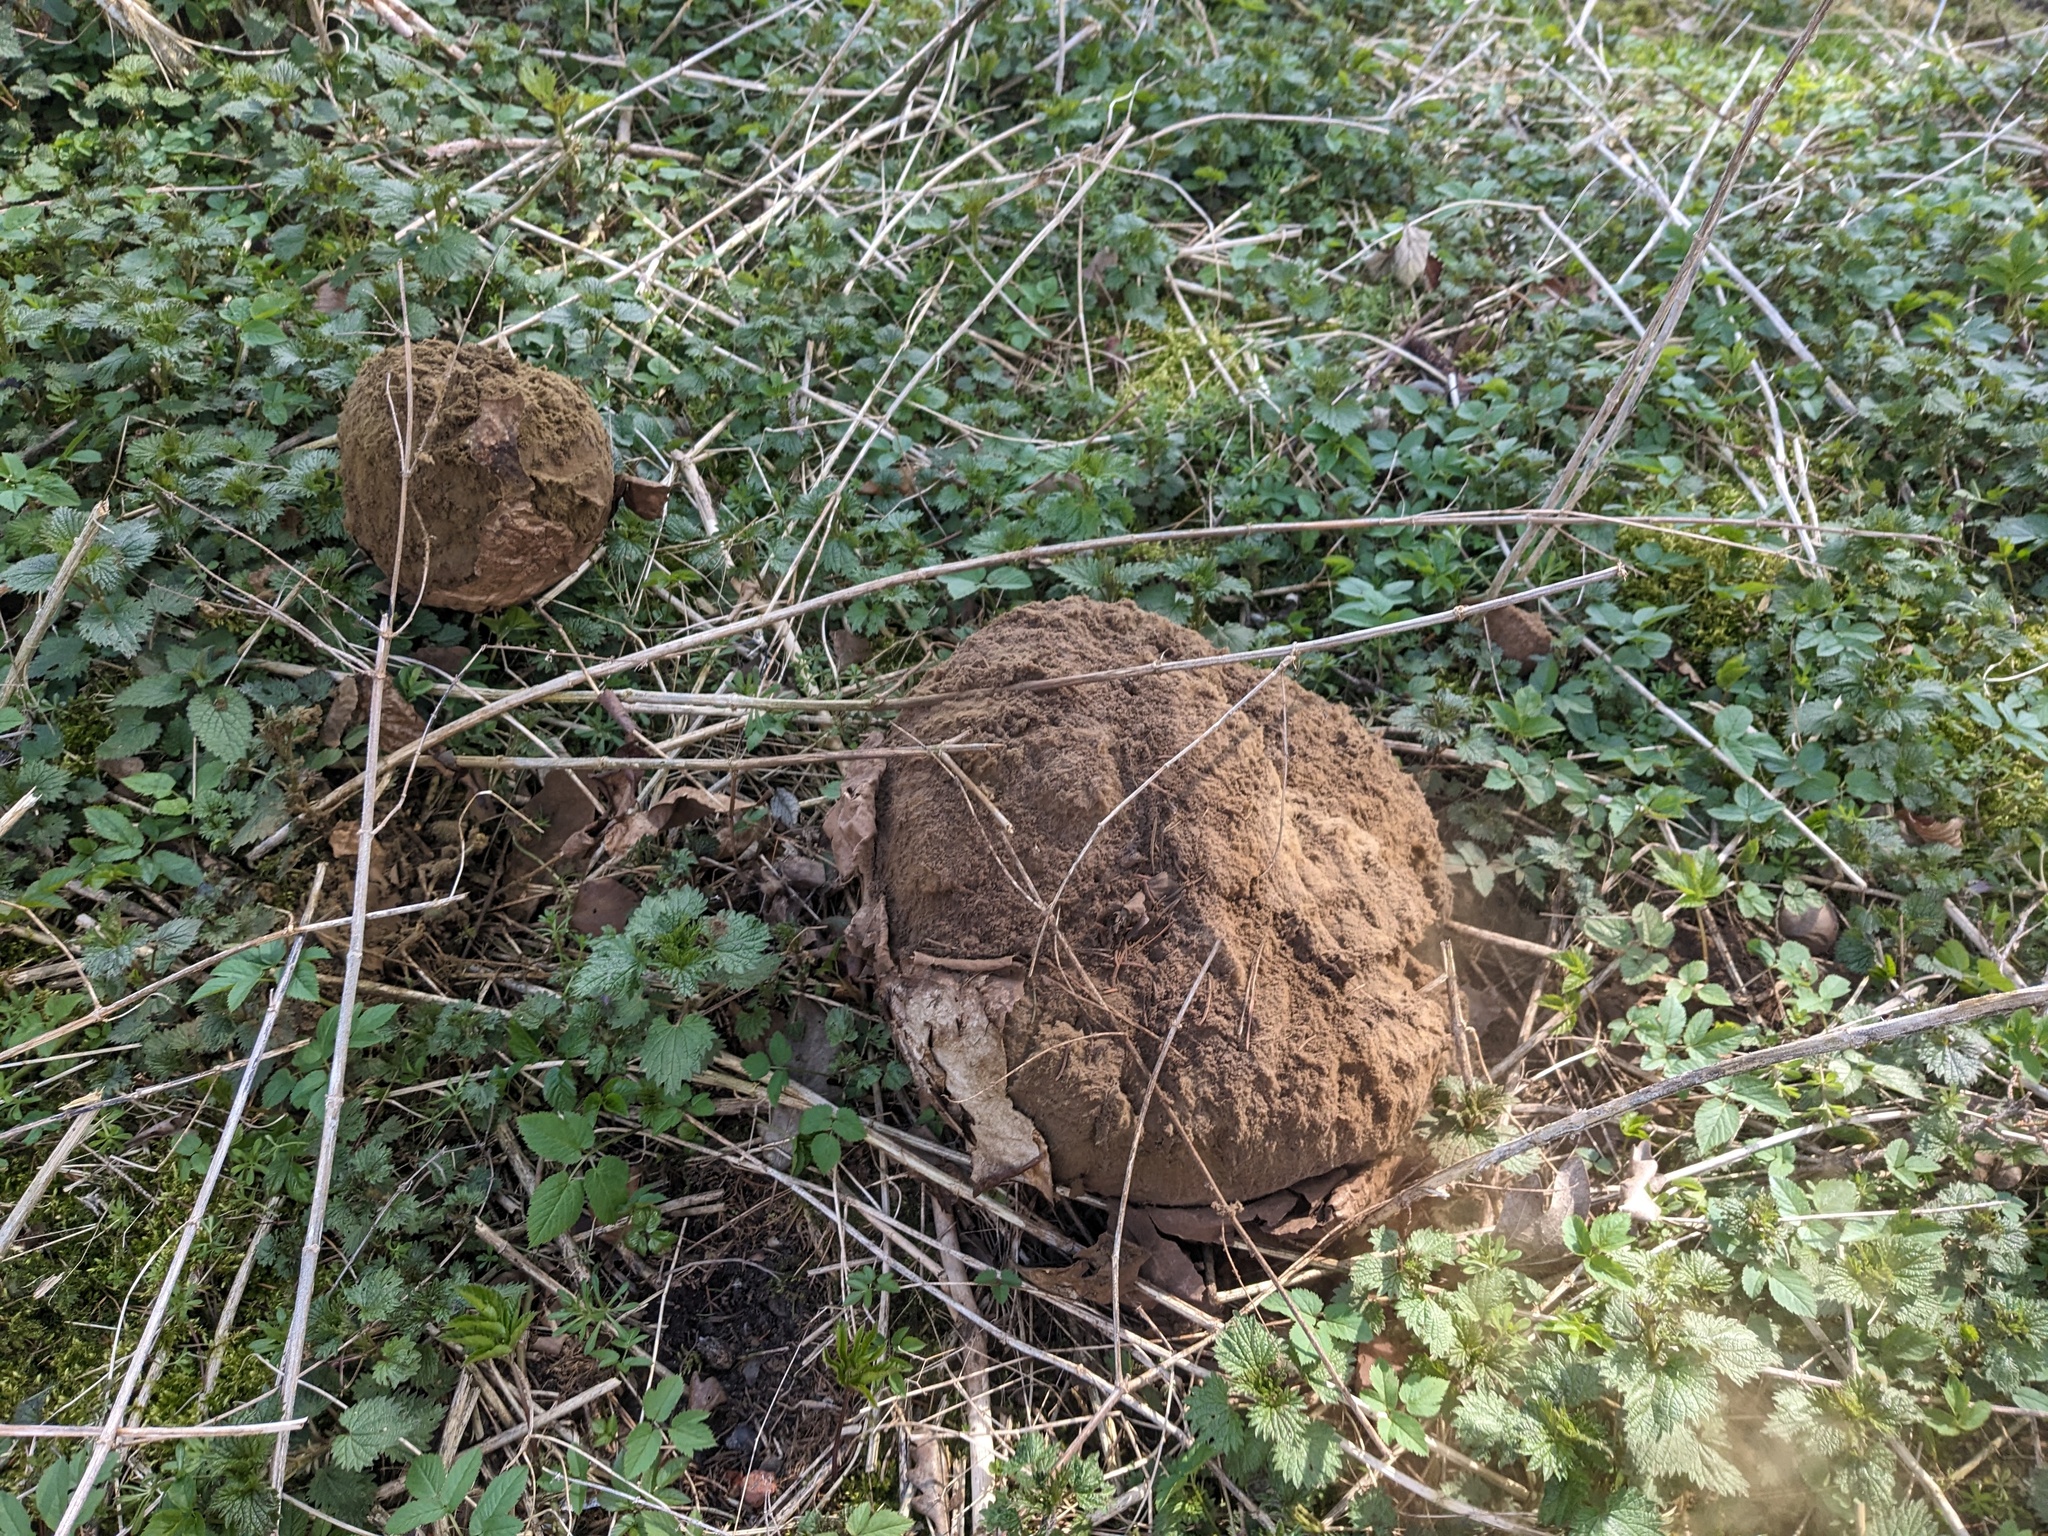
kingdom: Fungi
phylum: Basidiomycota
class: Agaricomycetes
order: Agaricales
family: Lycoperdaceae
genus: Calvatia
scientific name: Calvatia gigantea
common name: Giant puffball
